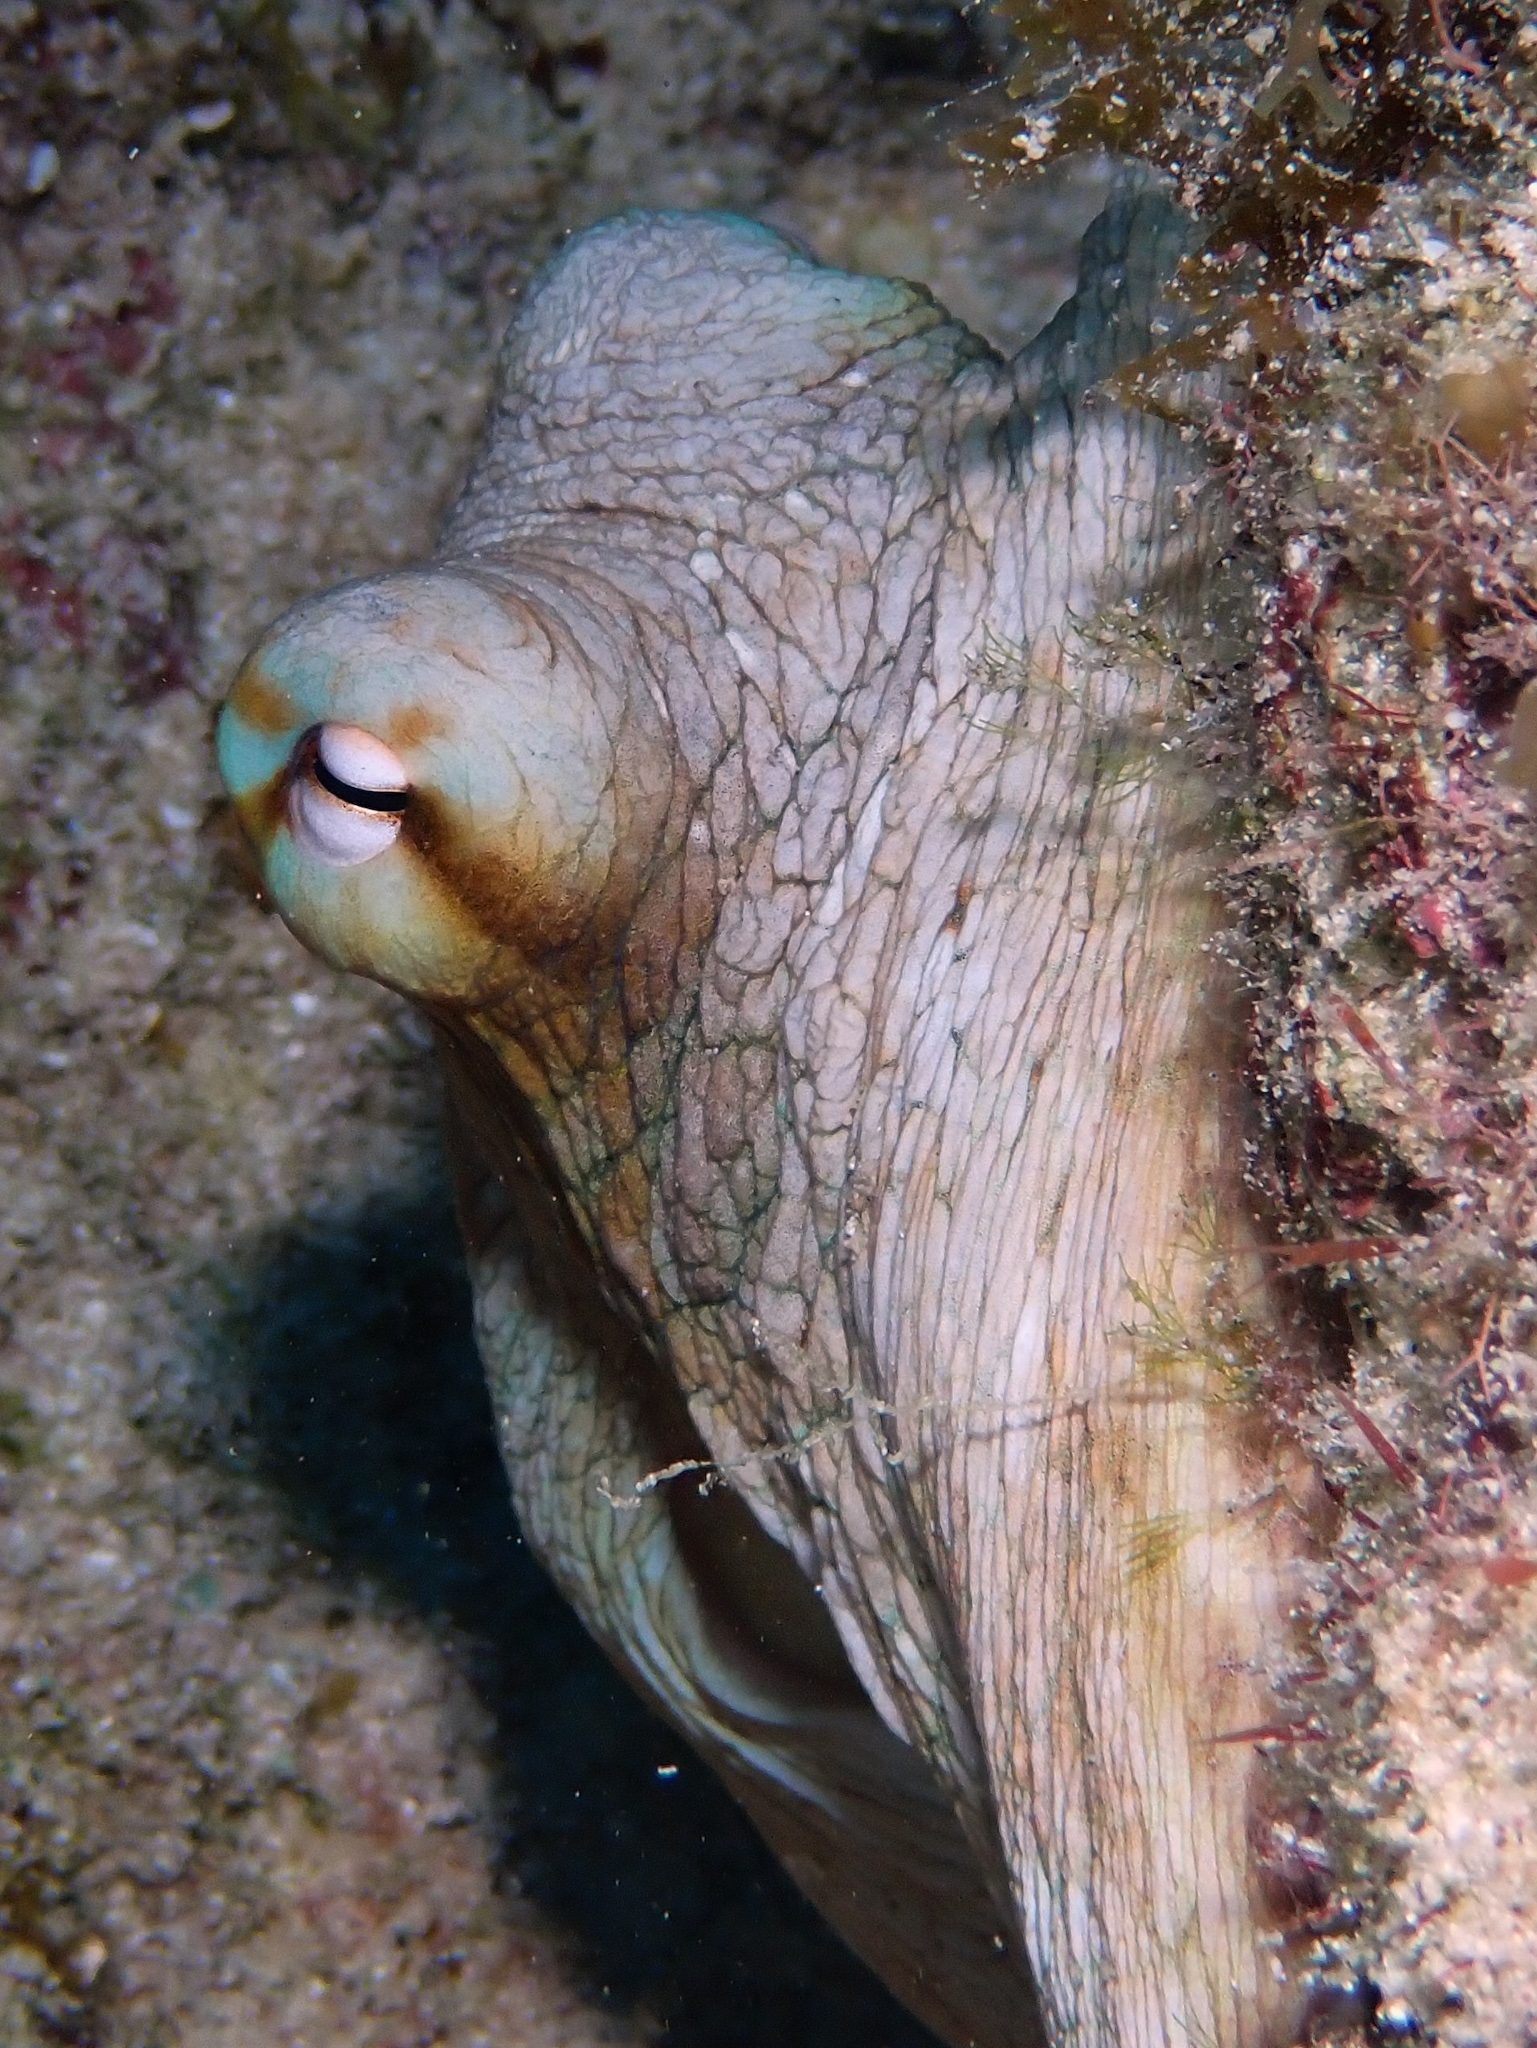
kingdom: Animalia
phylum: Mollusca
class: Cephalopoda
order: Octopoda
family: Octopodidae
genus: Octopus
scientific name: Octopus insularis
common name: Brazil reef octopus
